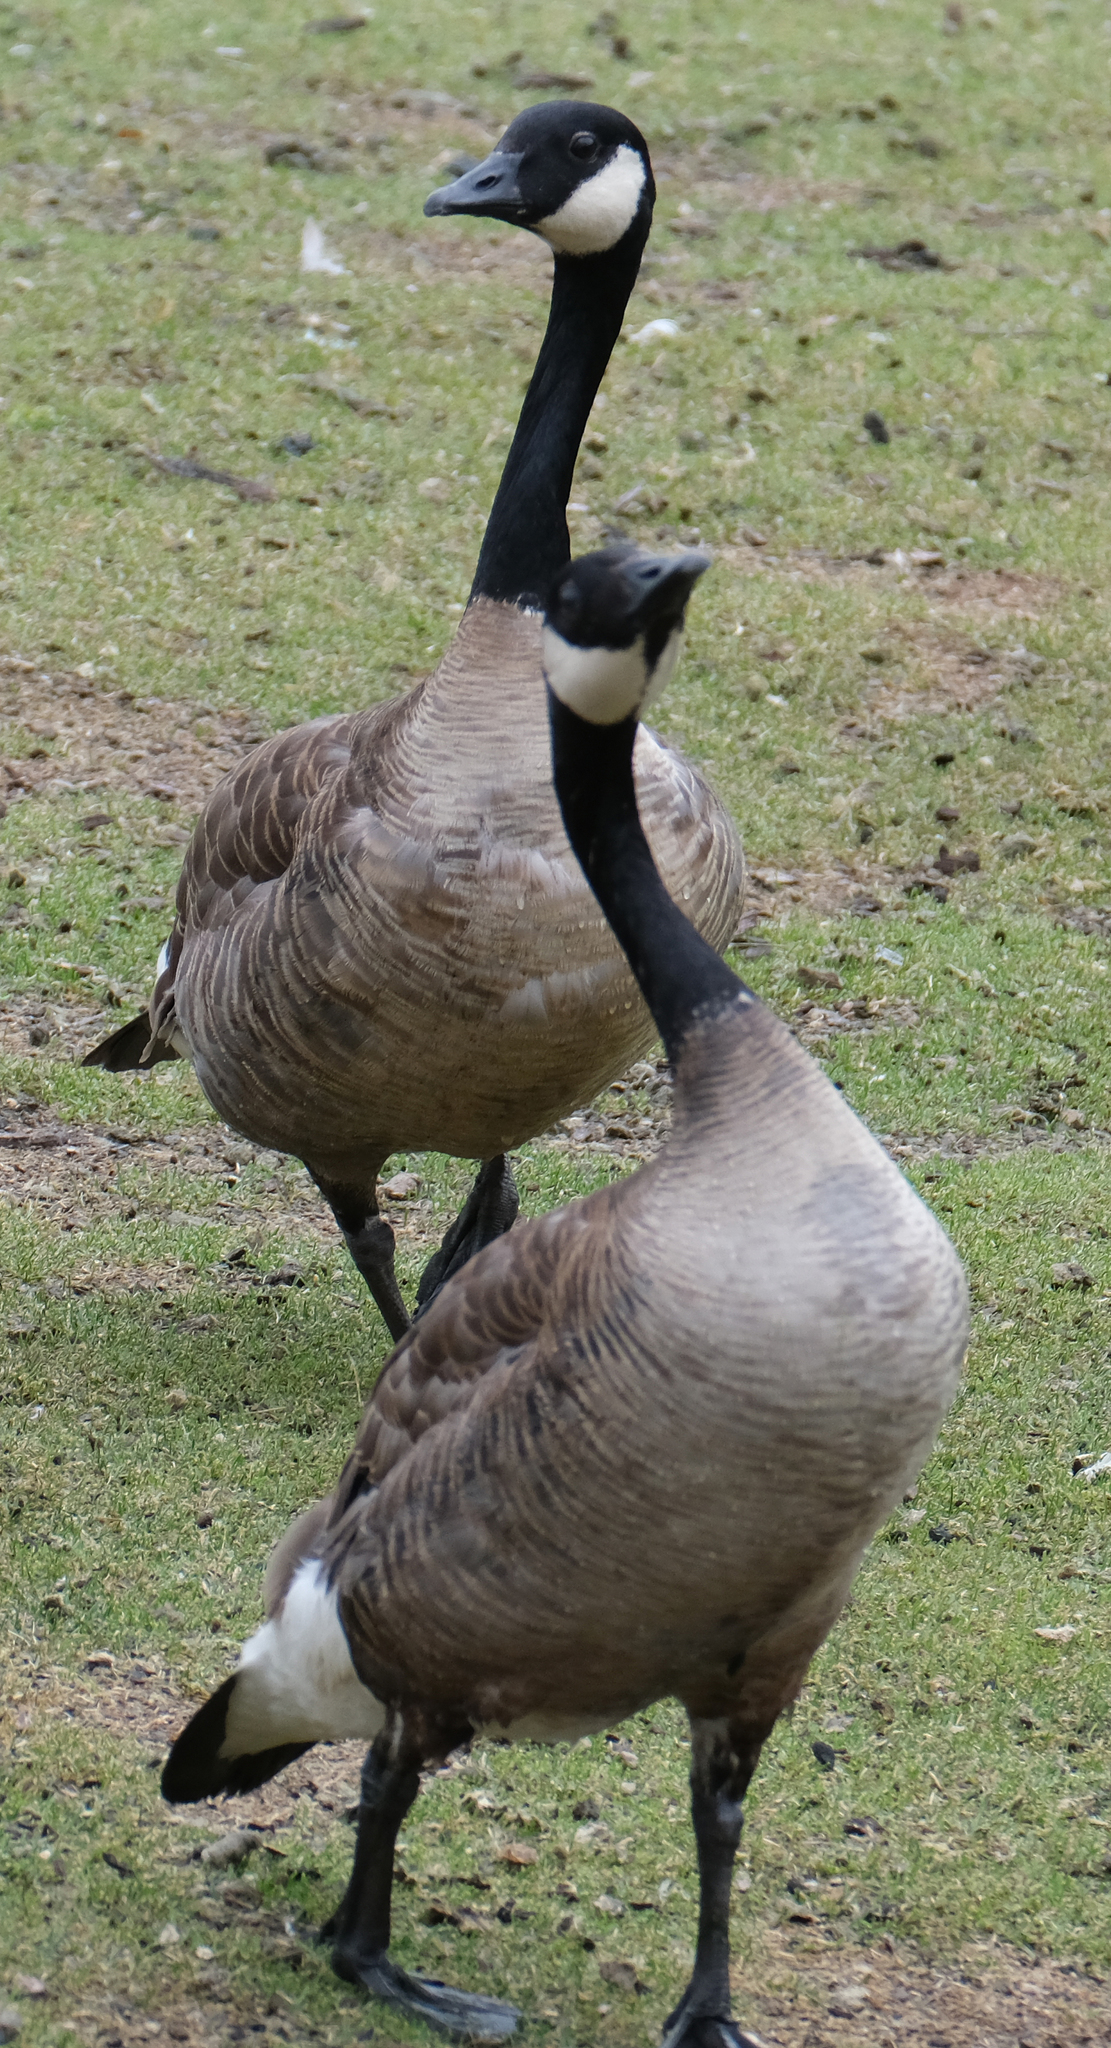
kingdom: Animalia
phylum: Chordata
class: Aves
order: Anseriformes
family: Anatidae
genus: Branta
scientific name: Branta canadensis
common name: Canada goose
